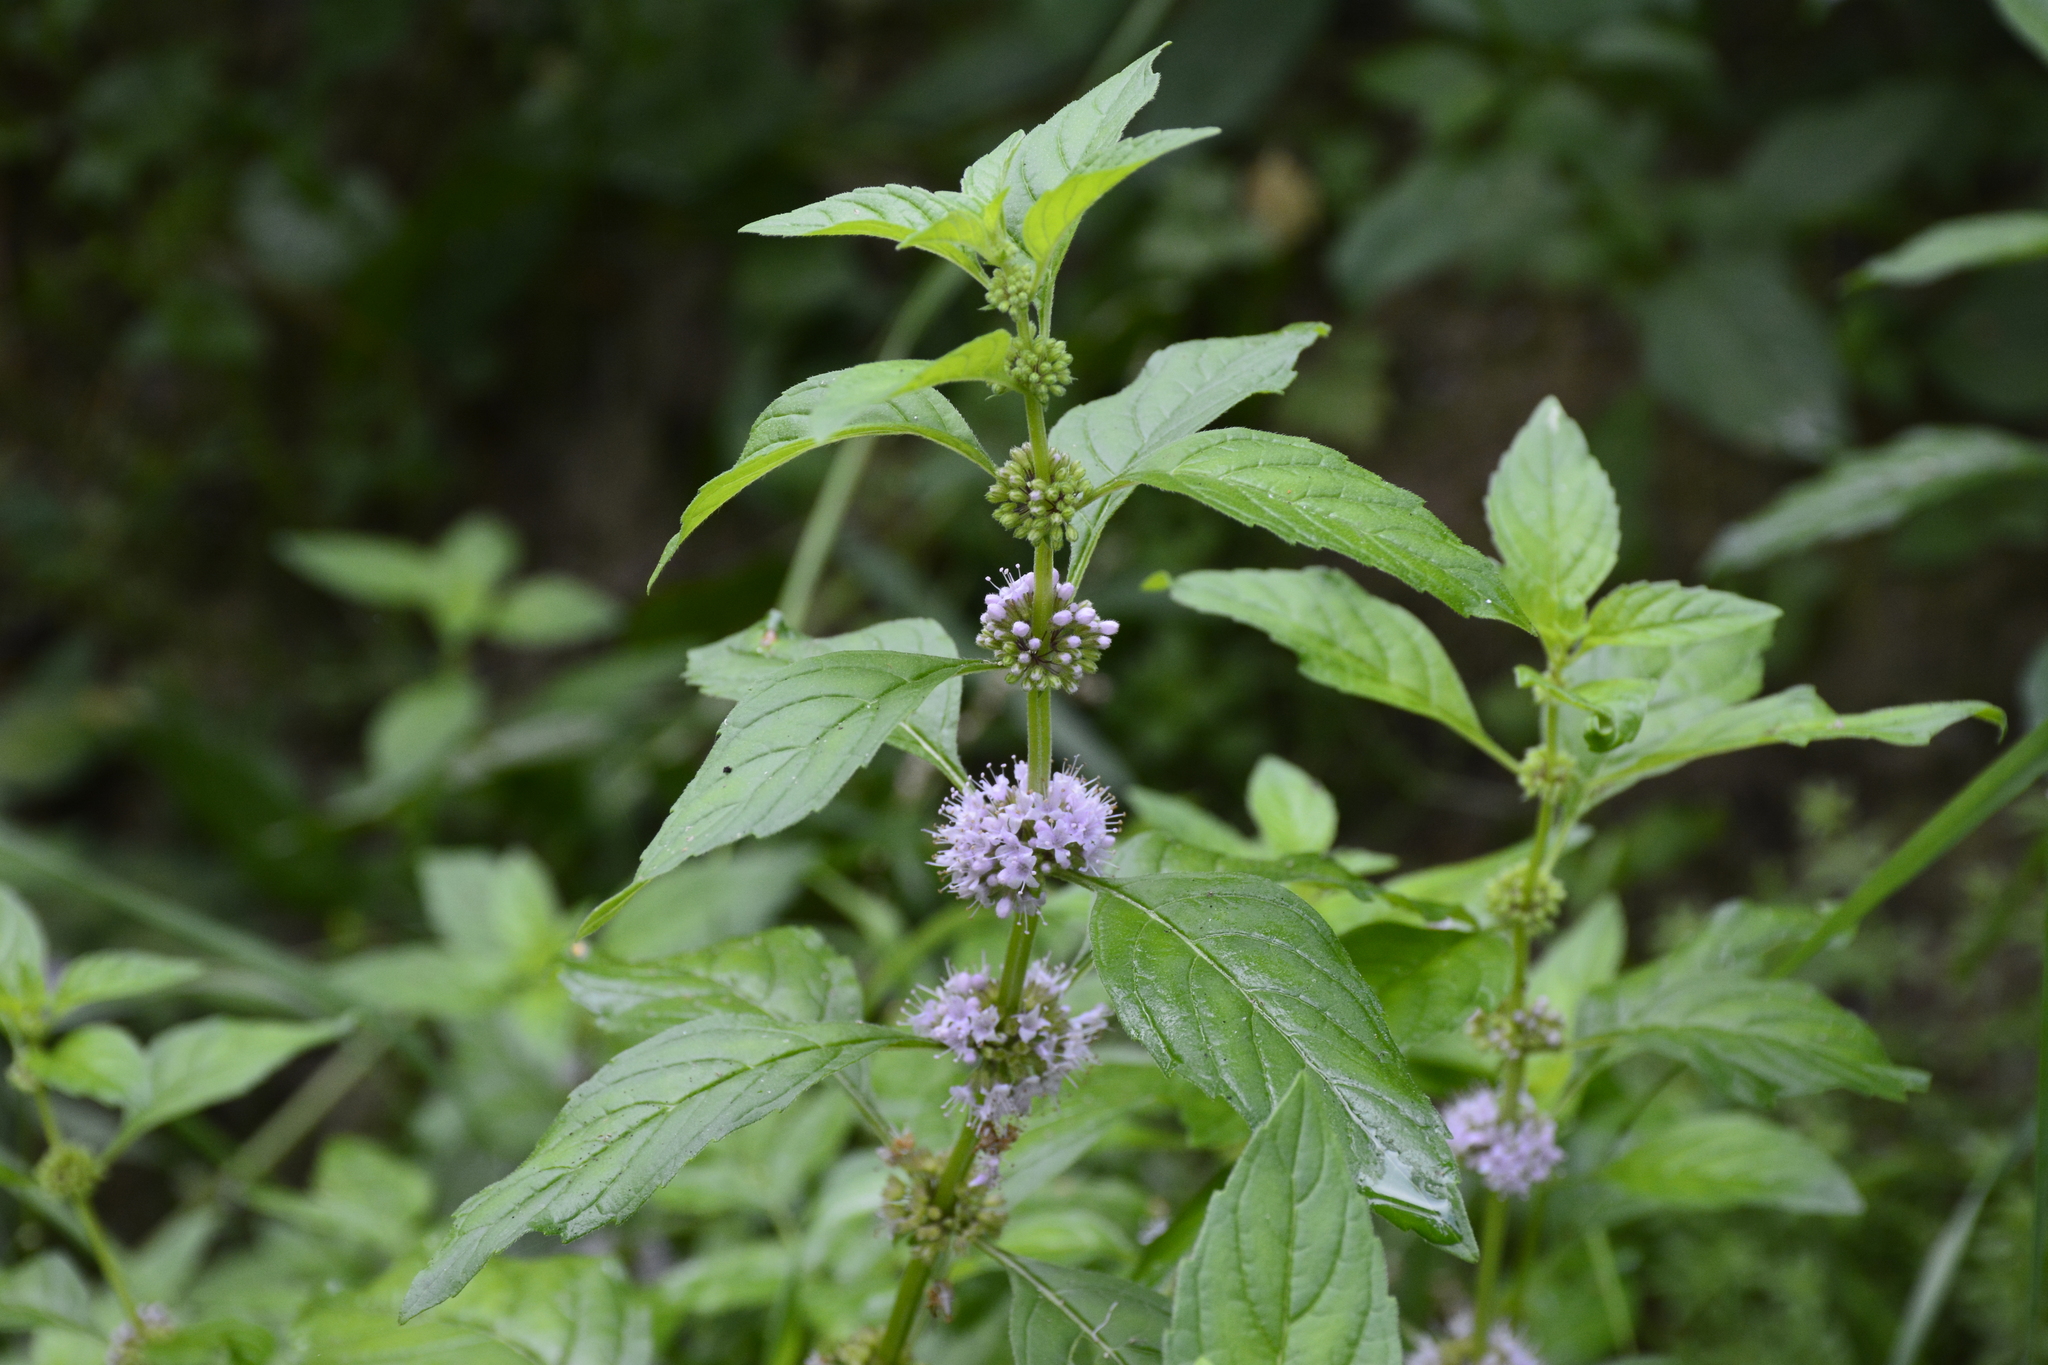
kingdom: Plantae
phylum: Tracheophyta
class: Magnoliopsida
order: Lamiales
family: Lamiaceae
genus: Mentha
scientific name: Mentha arvensis
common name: Corn mint
